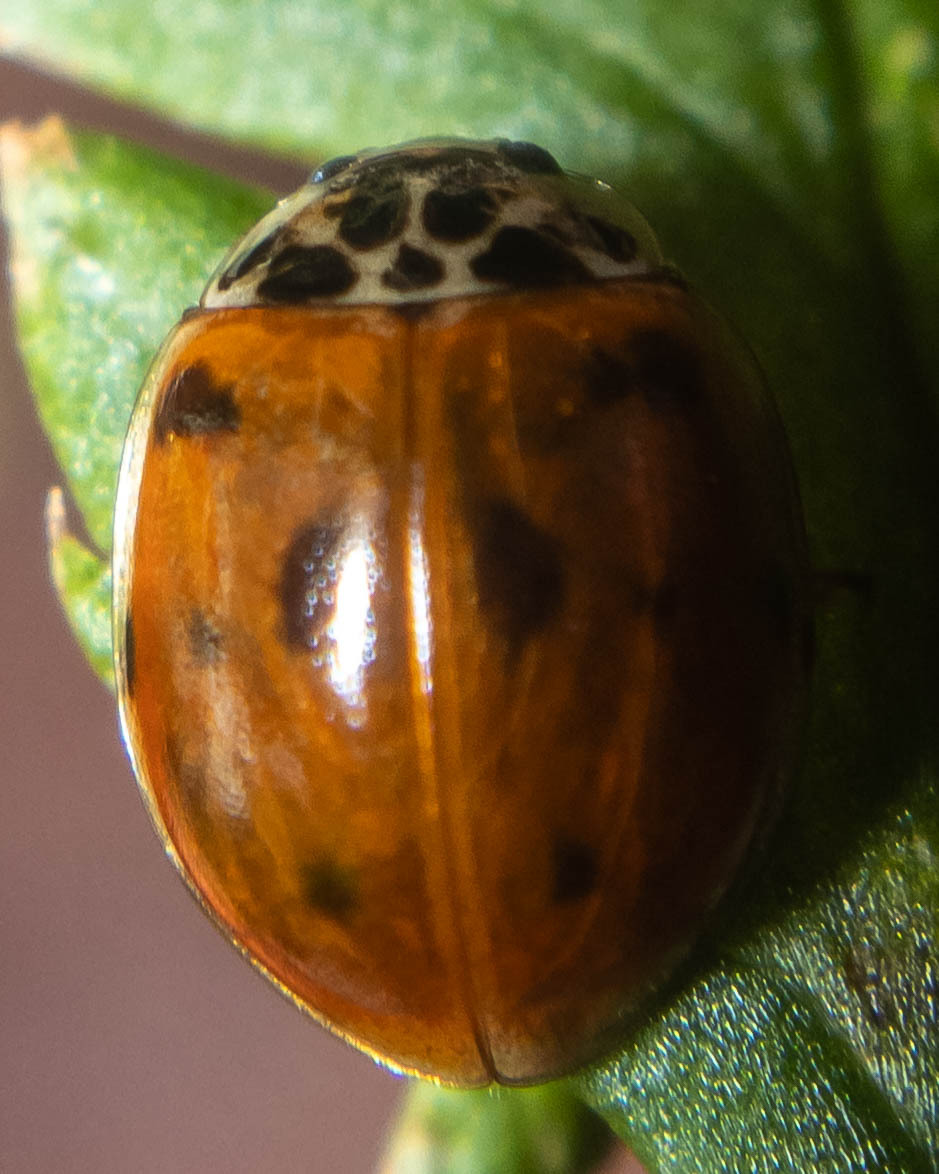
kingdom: Animalia
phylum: Arthropoda
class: Insecta
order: Coleoptera
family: Coccinellidae
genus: Adalia
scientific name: Adalia decempunctata
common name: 10-spot ladybird
